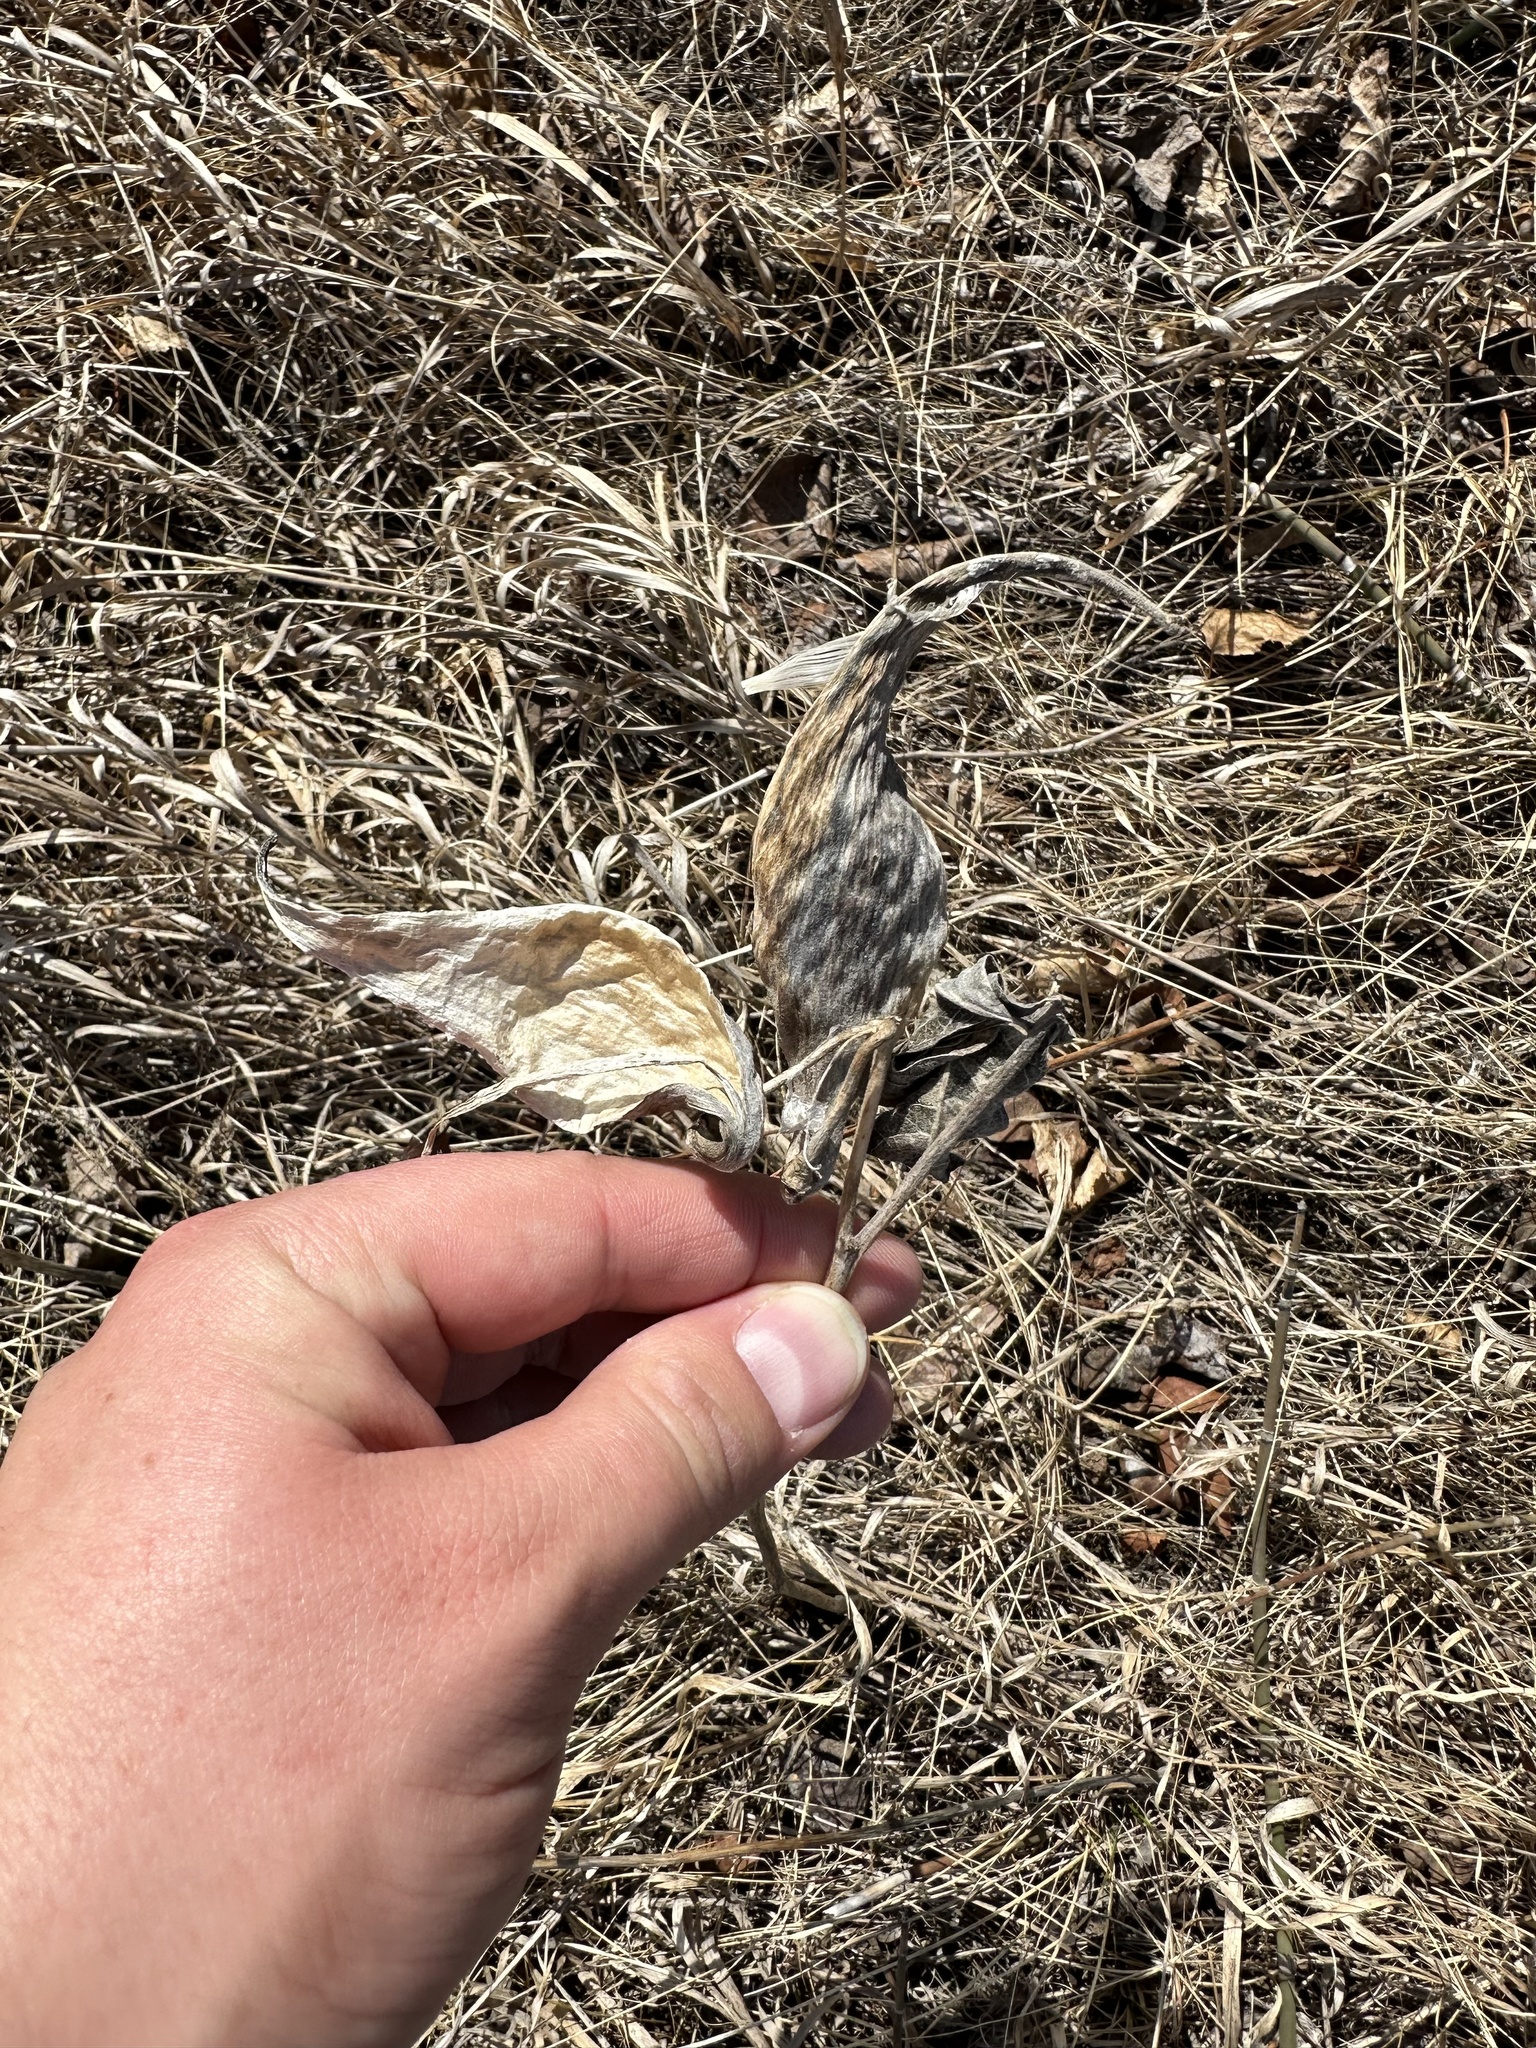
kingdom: Plantae
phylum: Tracheophyta
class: Magnoliopsida
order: Gentianales
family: Apocynaceae
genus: Asclepias
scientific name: Asclepias ovalifolia
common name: Dwarf milkweed
